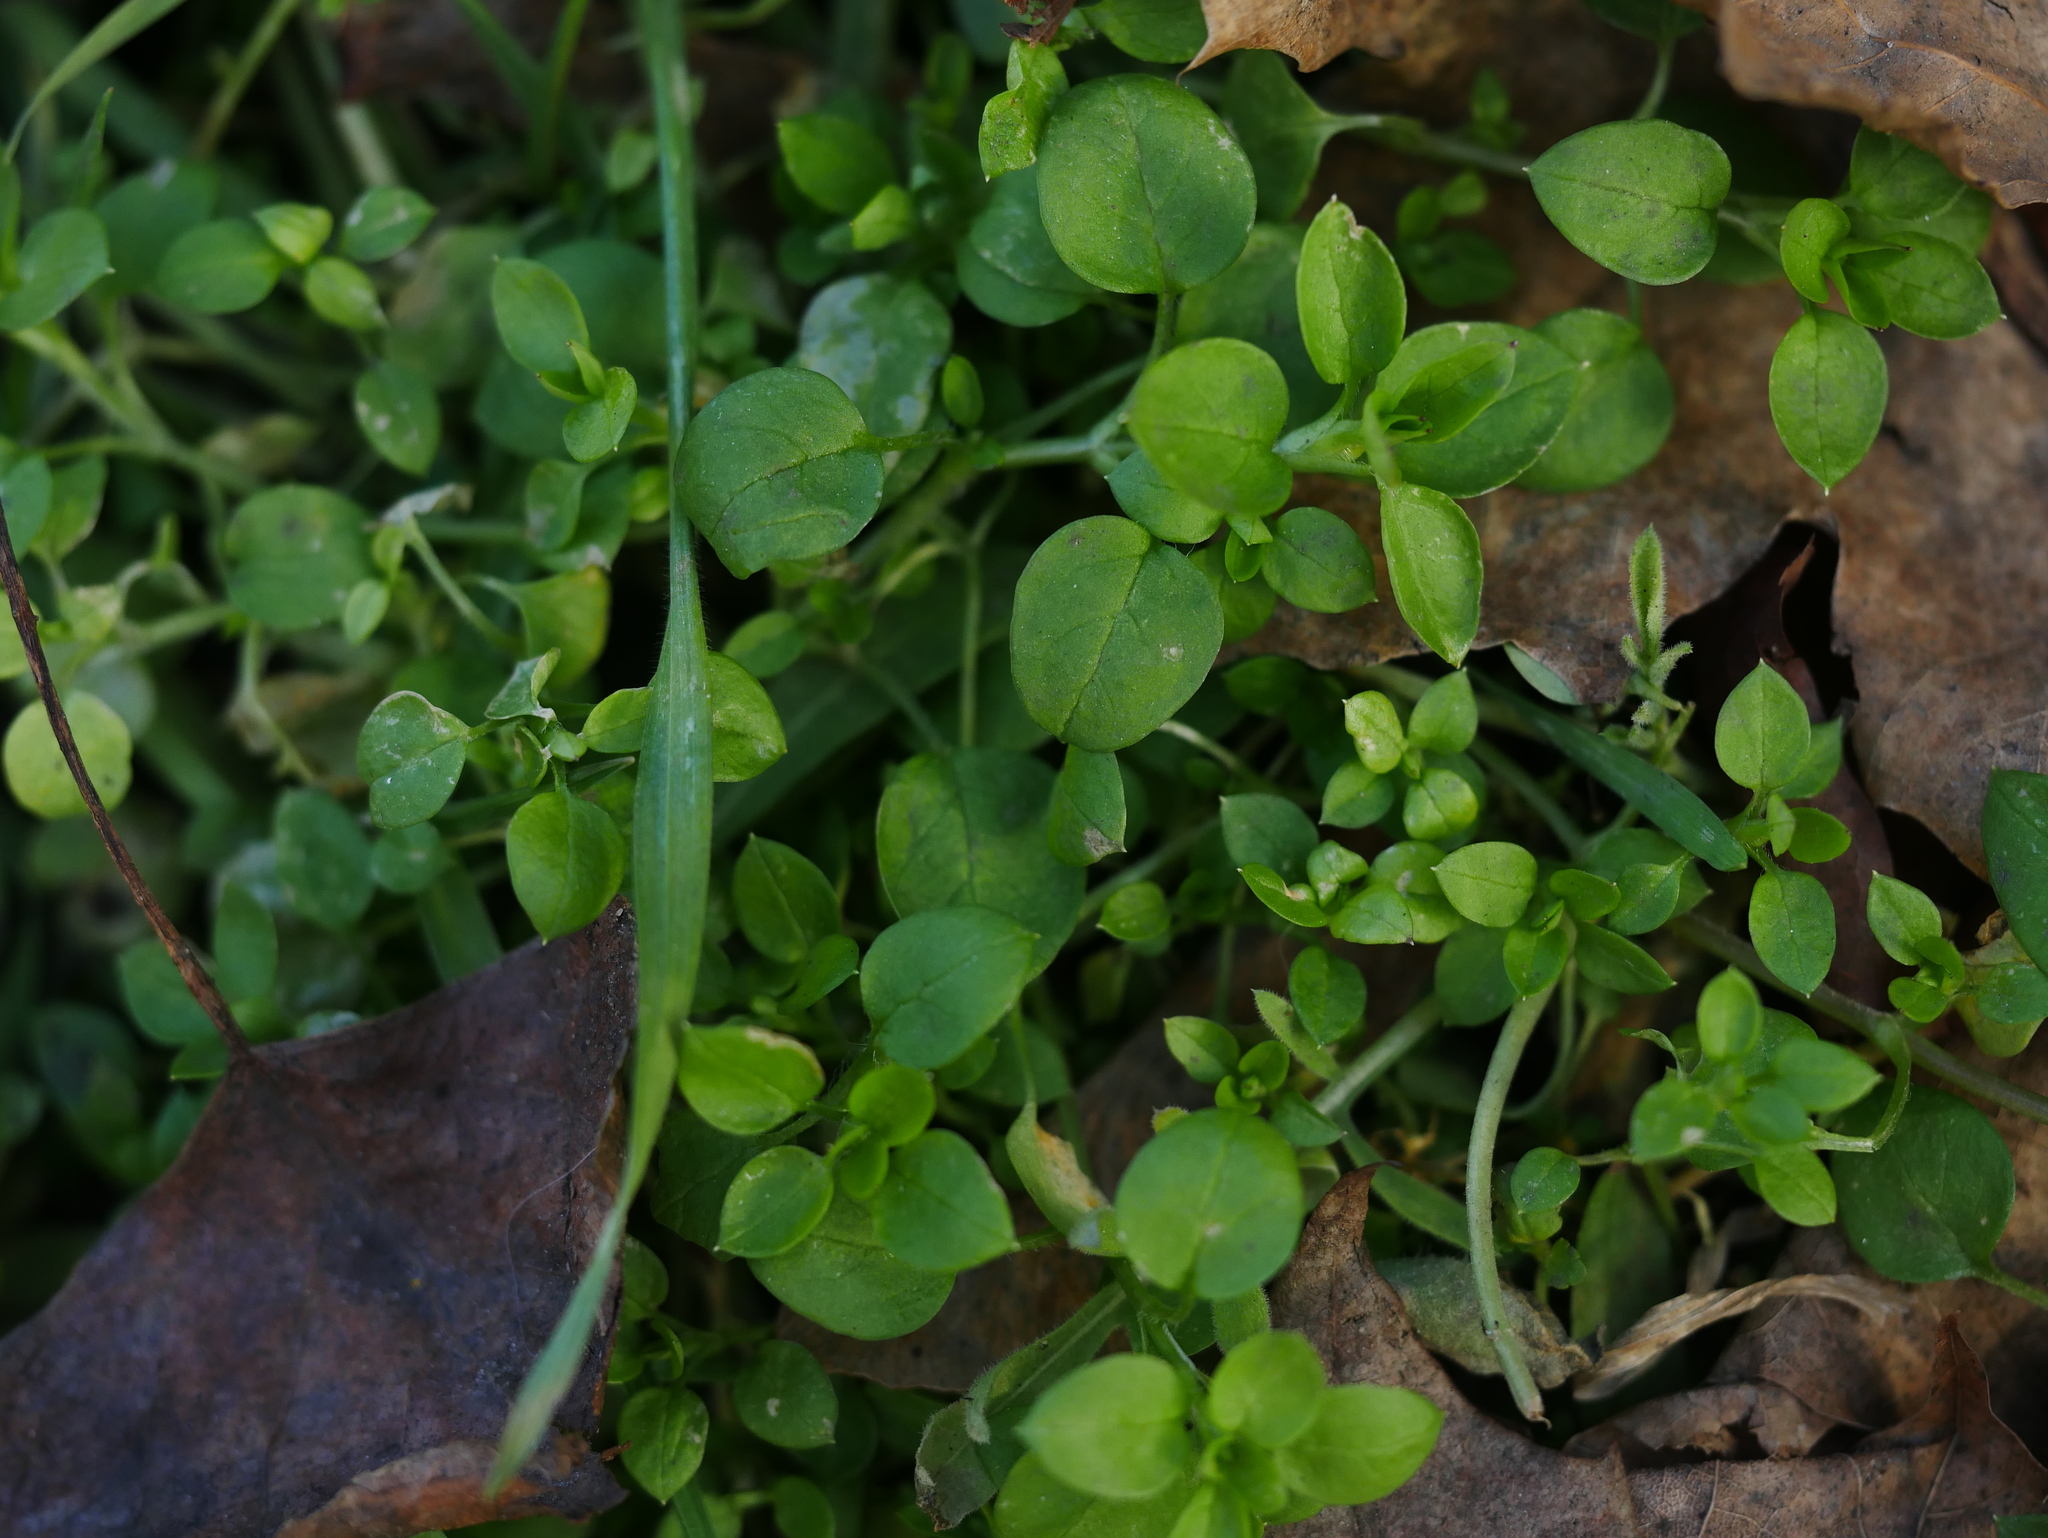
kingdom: Plantae
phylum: Tracheophyta
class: Magnoliopsida
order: Caryophyllales
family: Caryophyllaceae
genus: Stellaria
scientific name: Stellaria media
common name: Common chickweed
